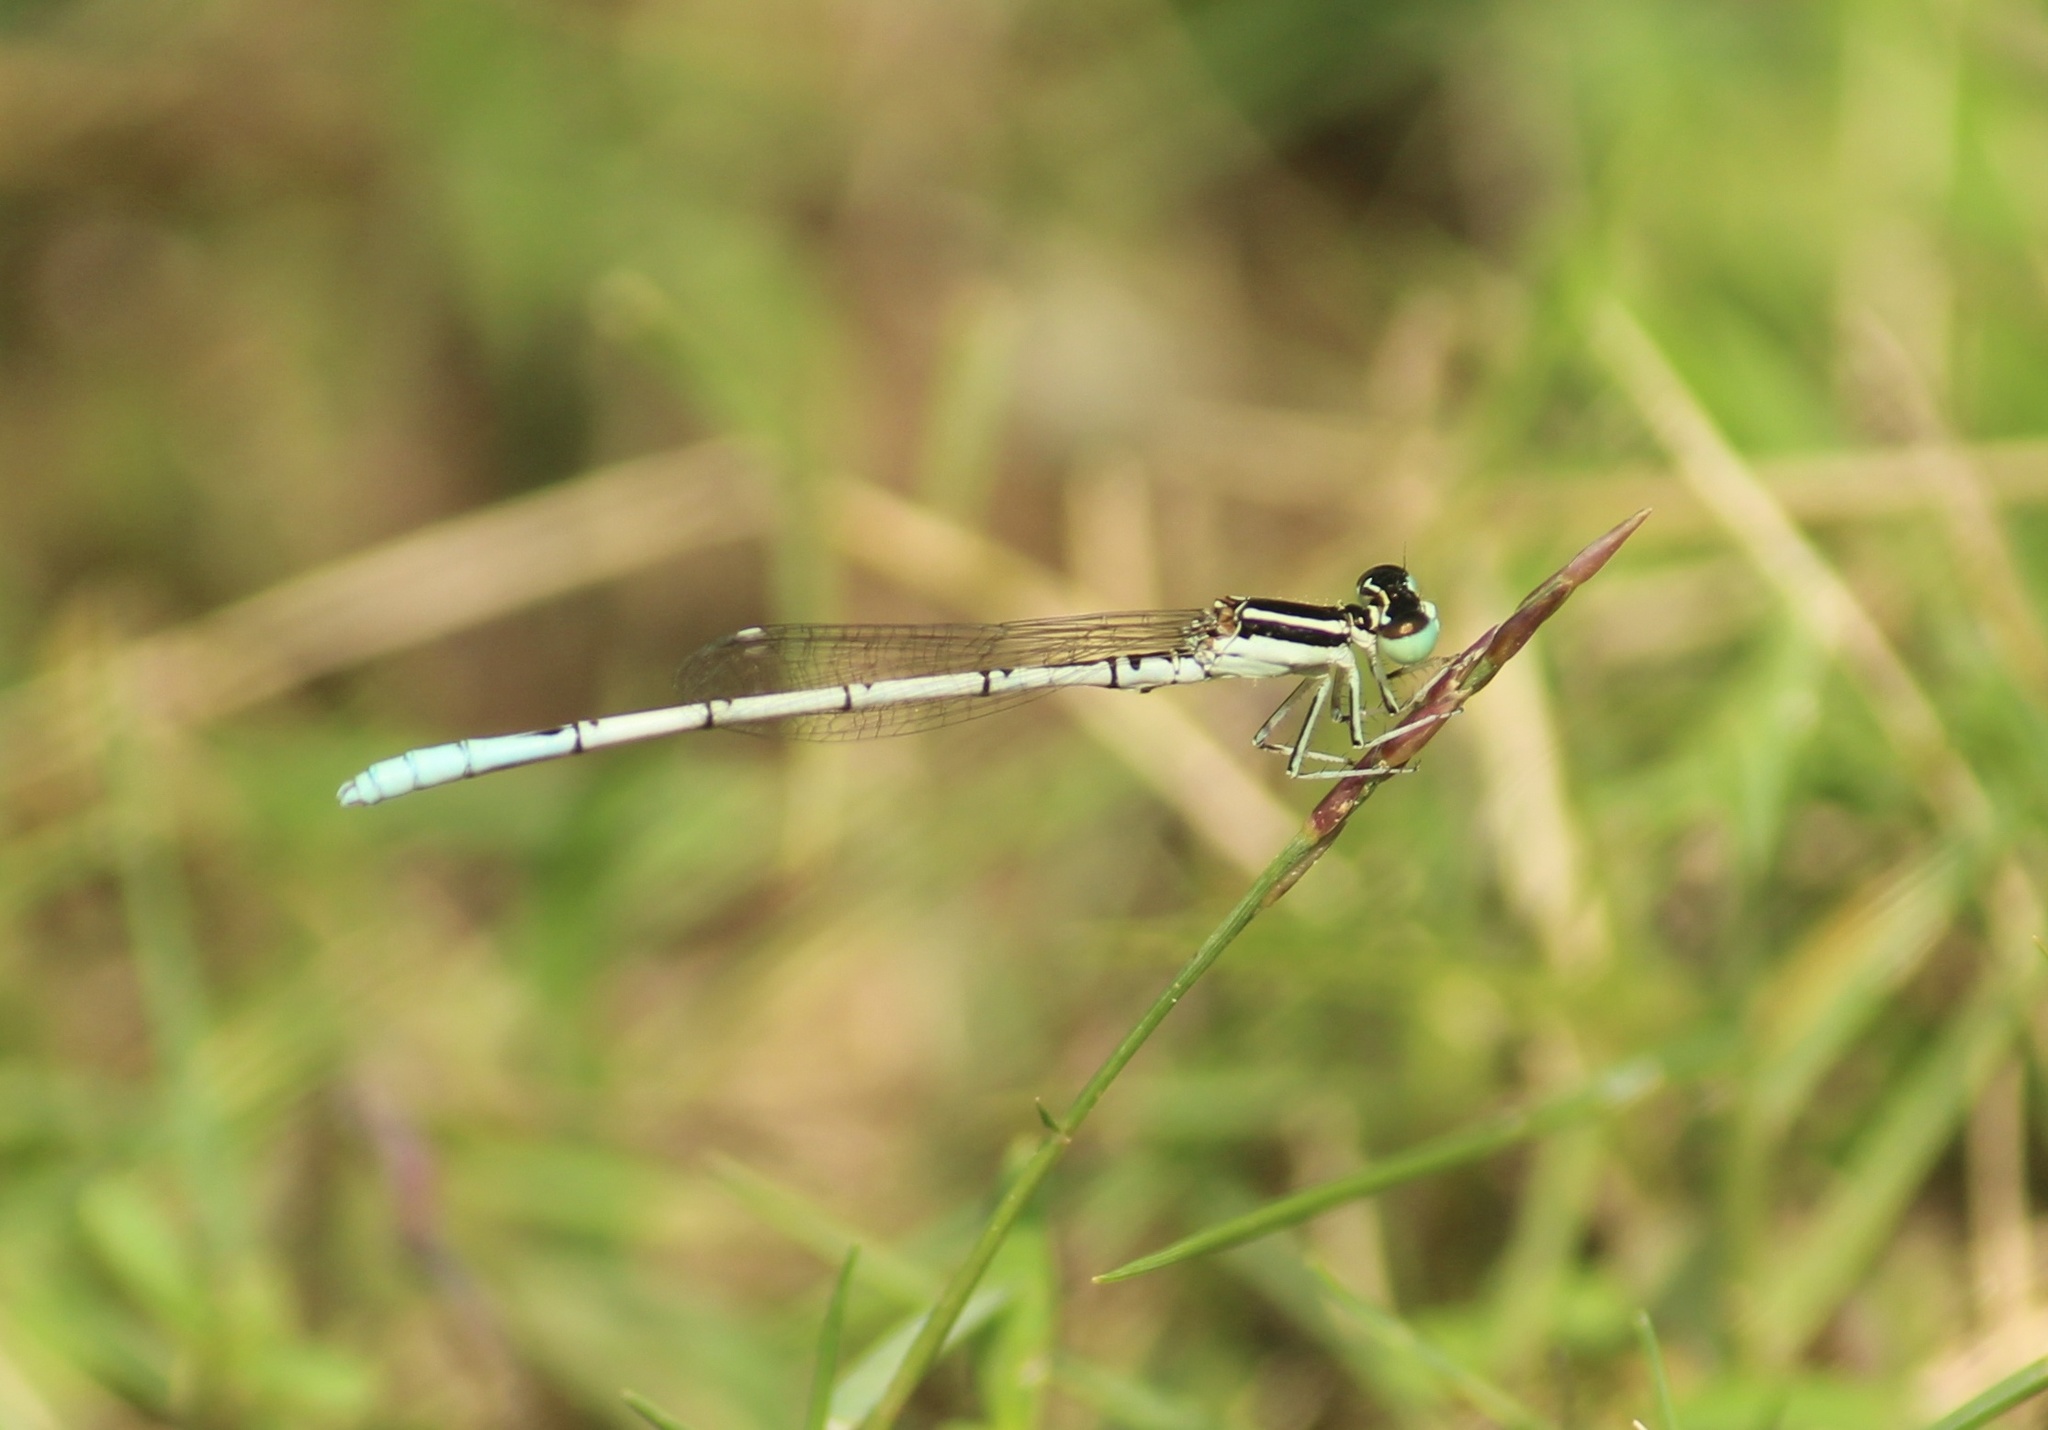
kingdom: Animalia
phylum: Arthropoda
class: Insecta
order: Odonata
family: Coenagrionidae
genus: Agriocnemis
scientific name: Agriocnemis pieris
